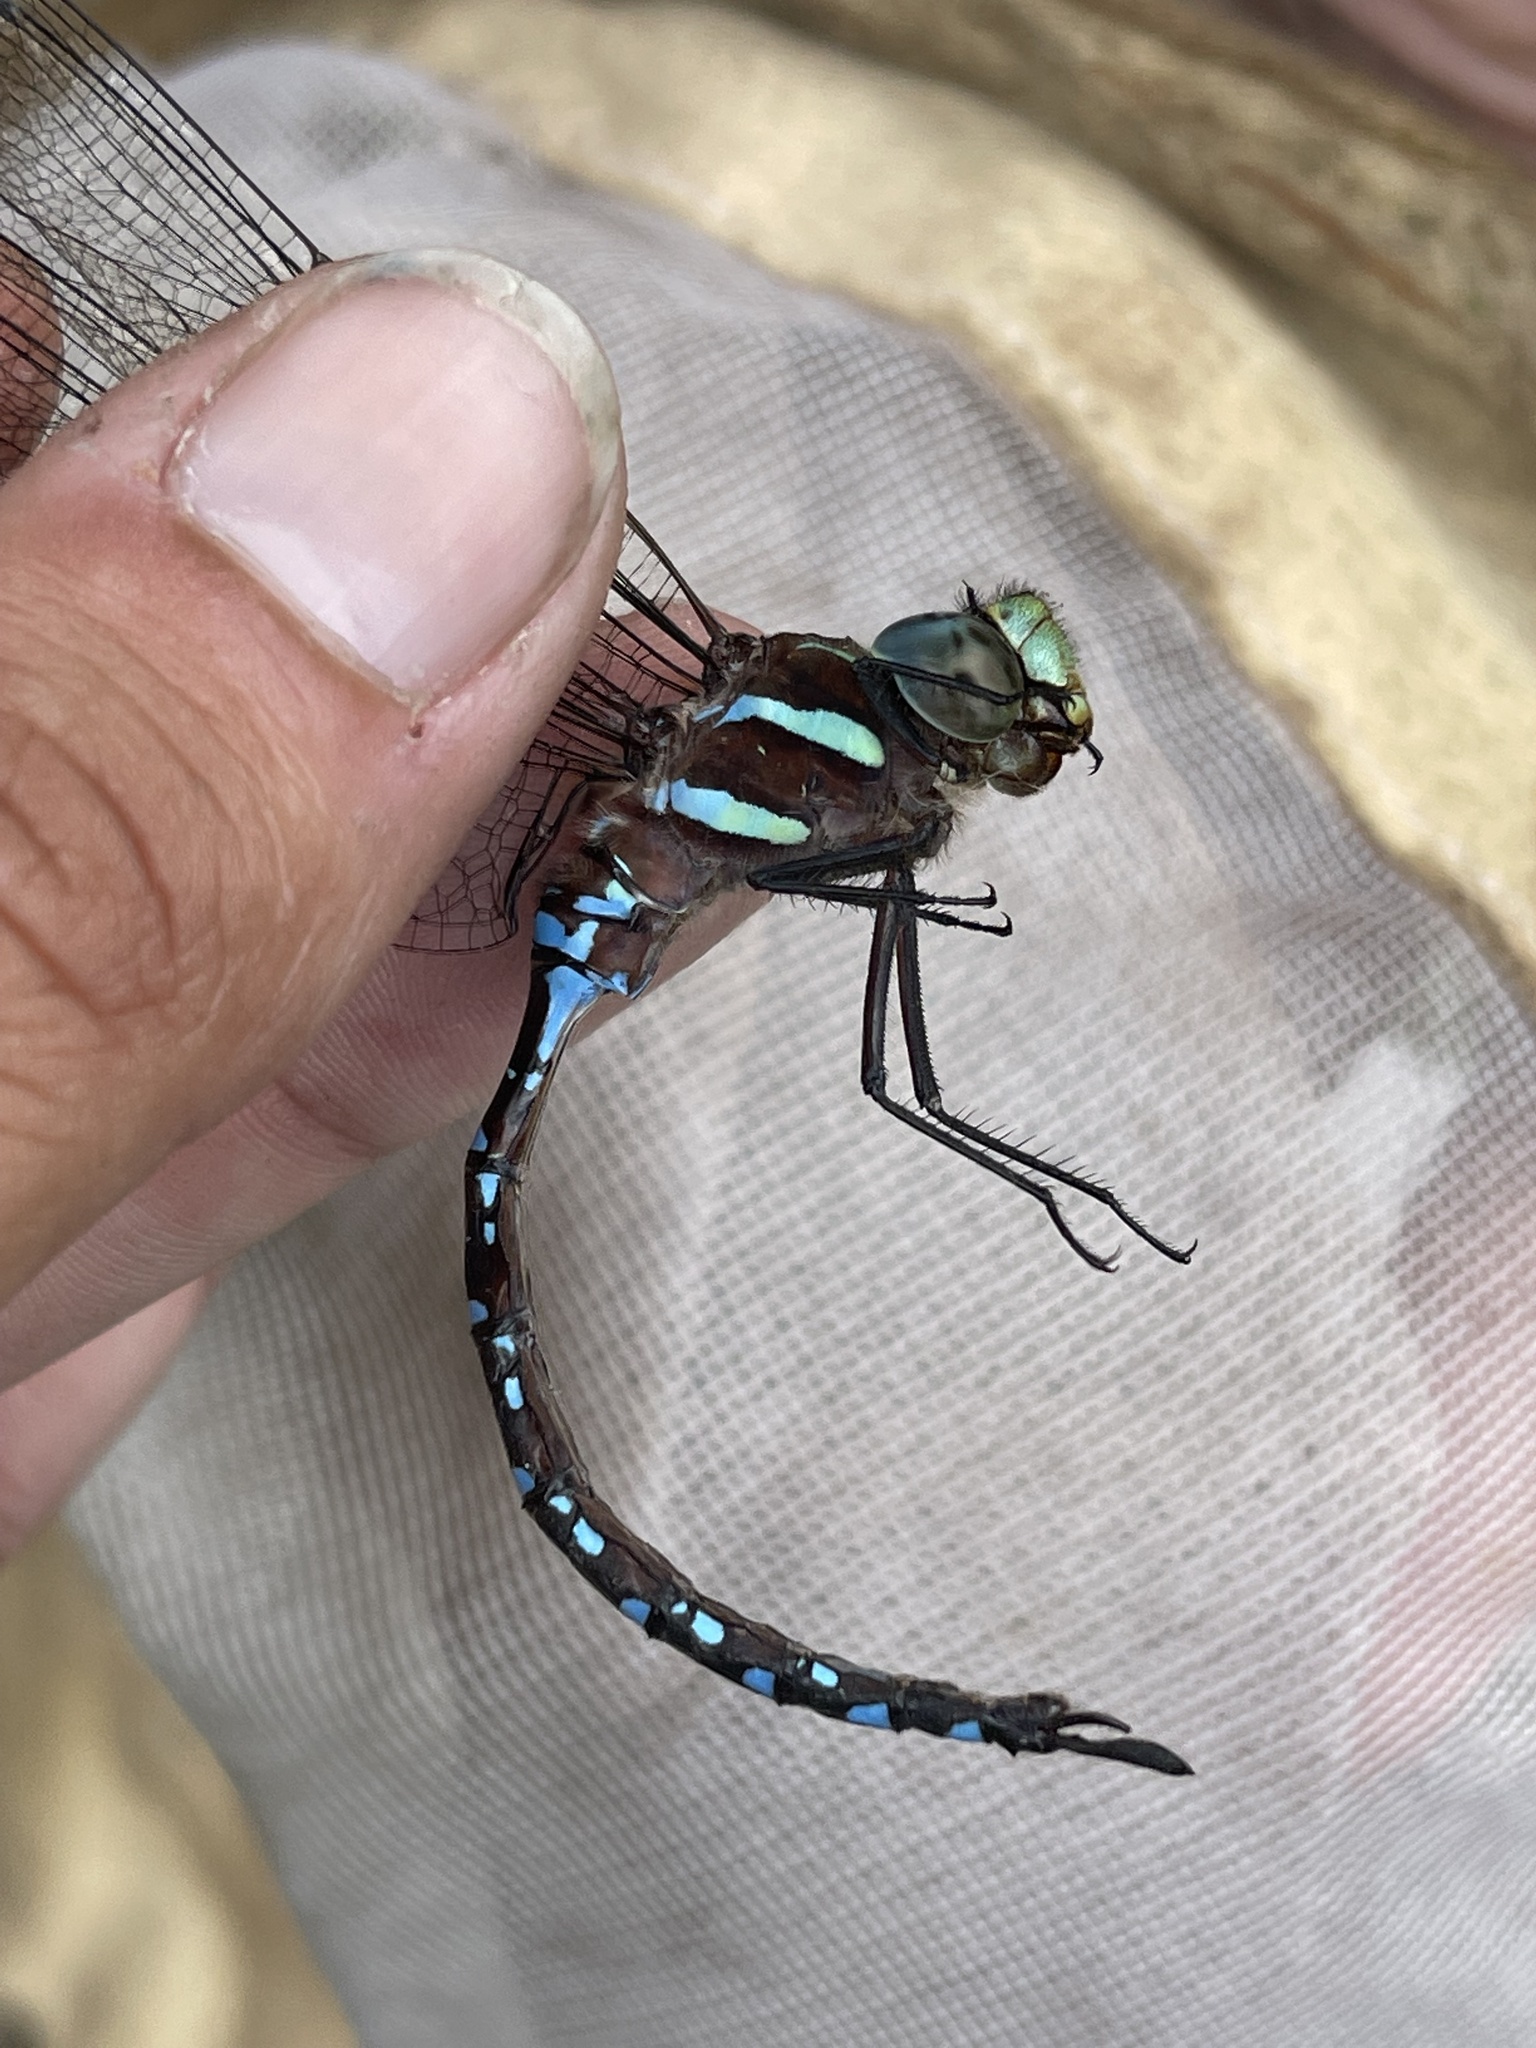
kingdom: Animalia
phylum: Arthropoda
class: Insecta
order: Odonata
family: Aeshnidae
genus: Aeshna
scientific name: Aeshna tuberculifera
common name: Aeschne à tubercules
